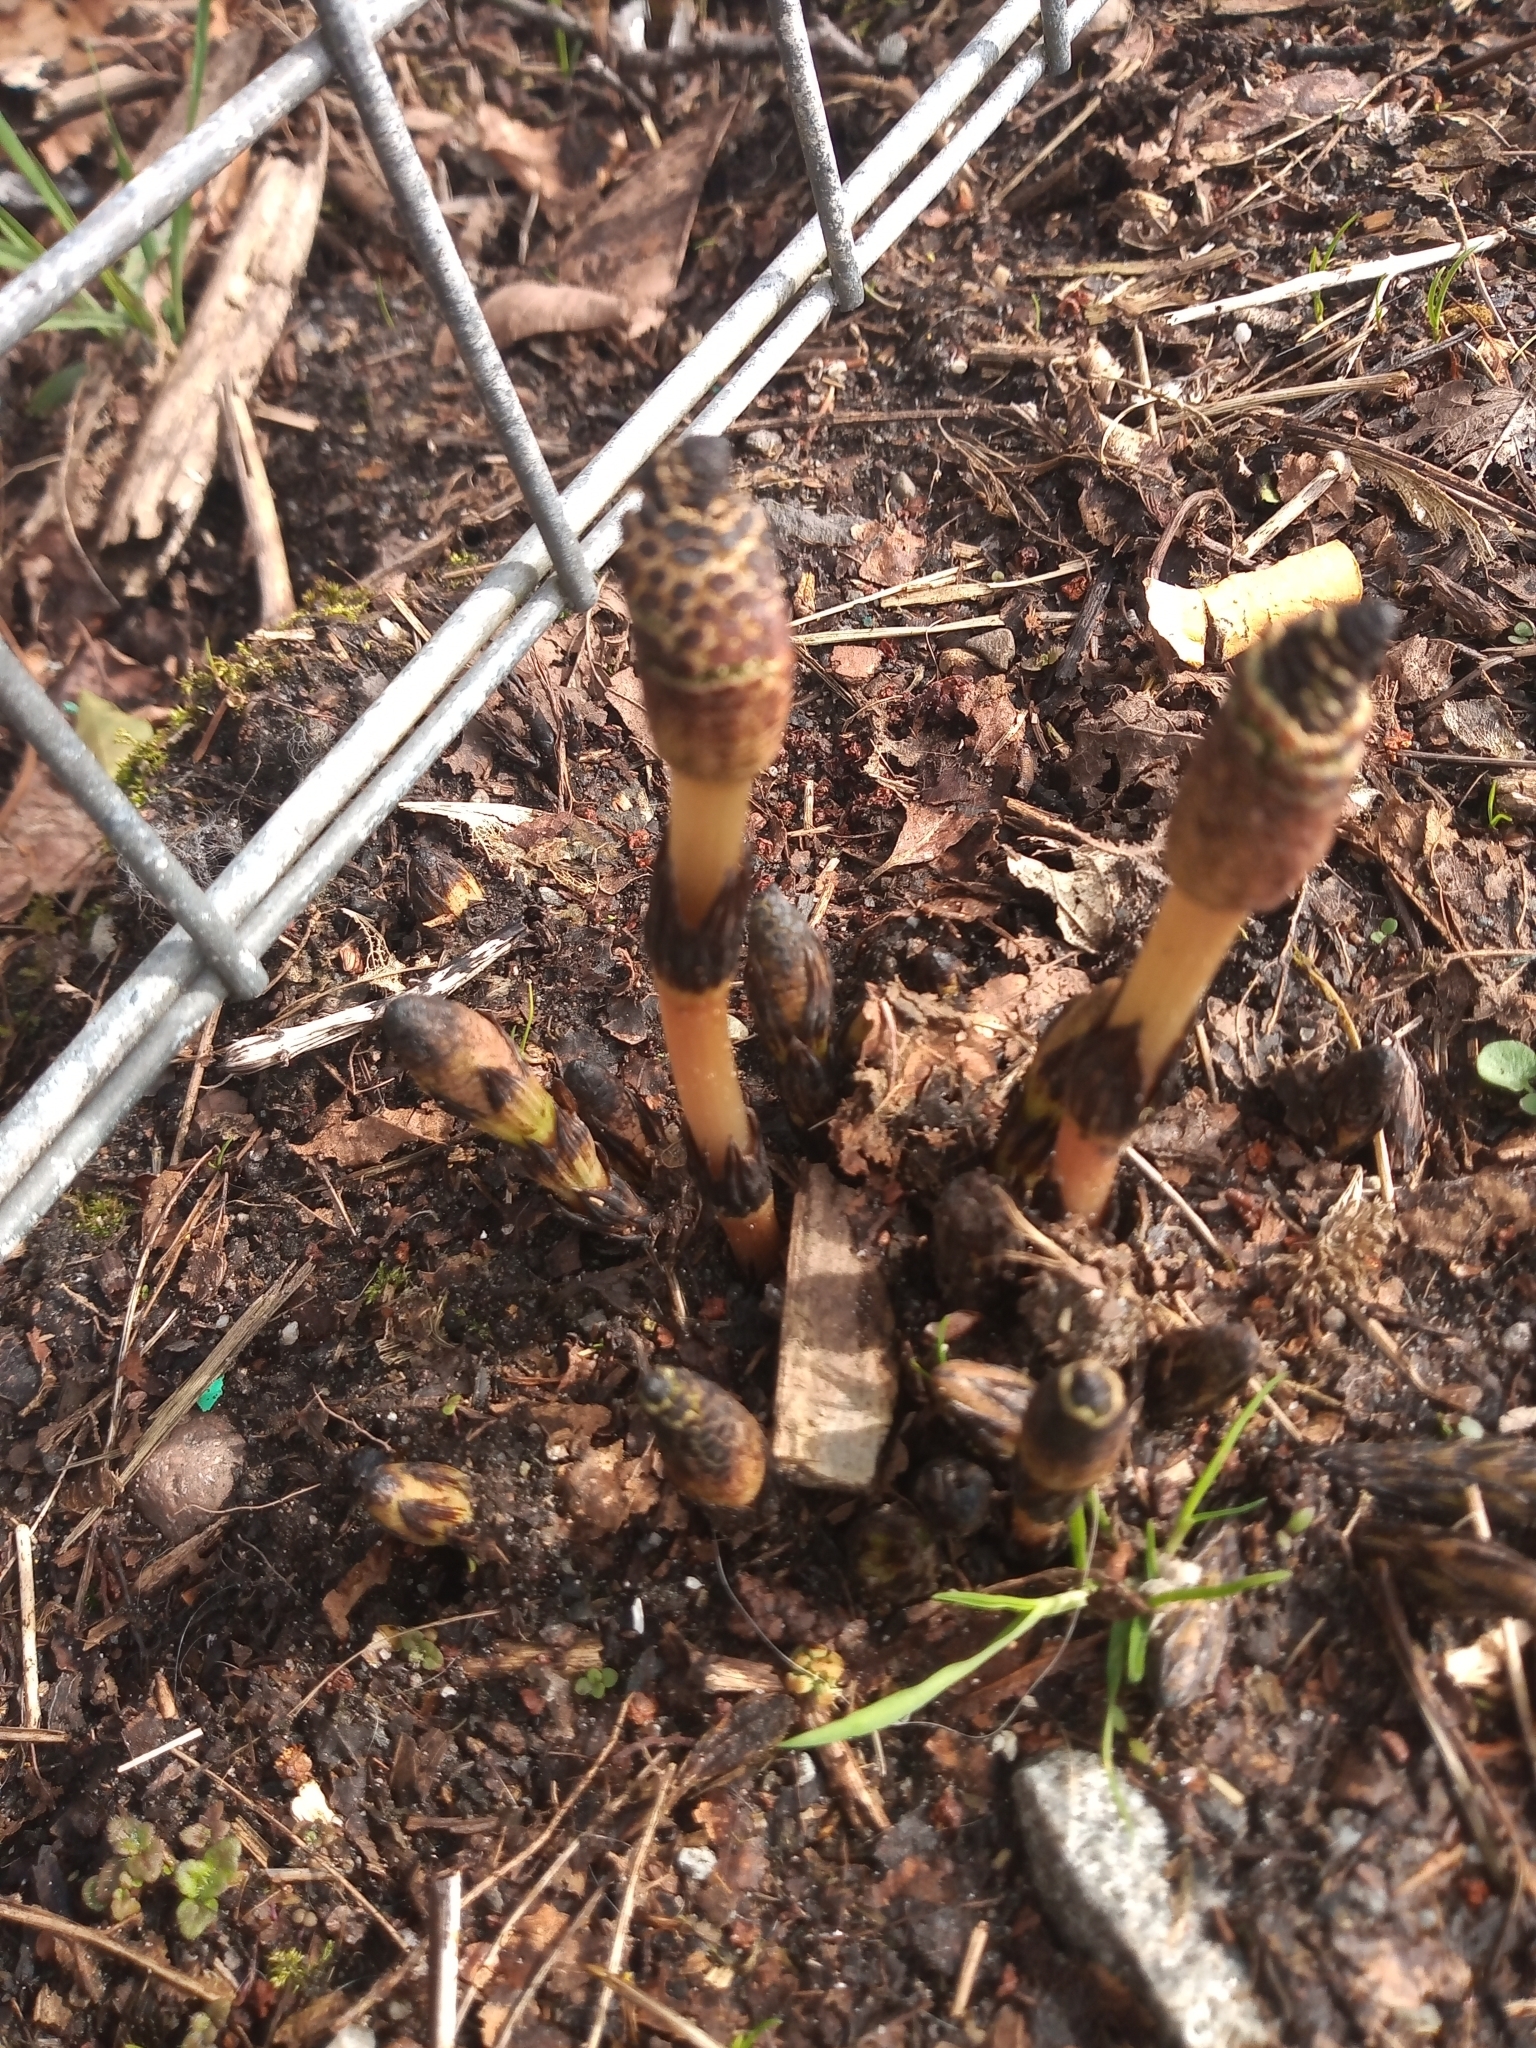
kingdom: Plantae
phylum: Tracheophyta
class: Polypodiopsida
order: Equisetales
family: Equisetaceae
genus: Equisetum
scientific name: Equisetum arvense
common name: Field horsetail
